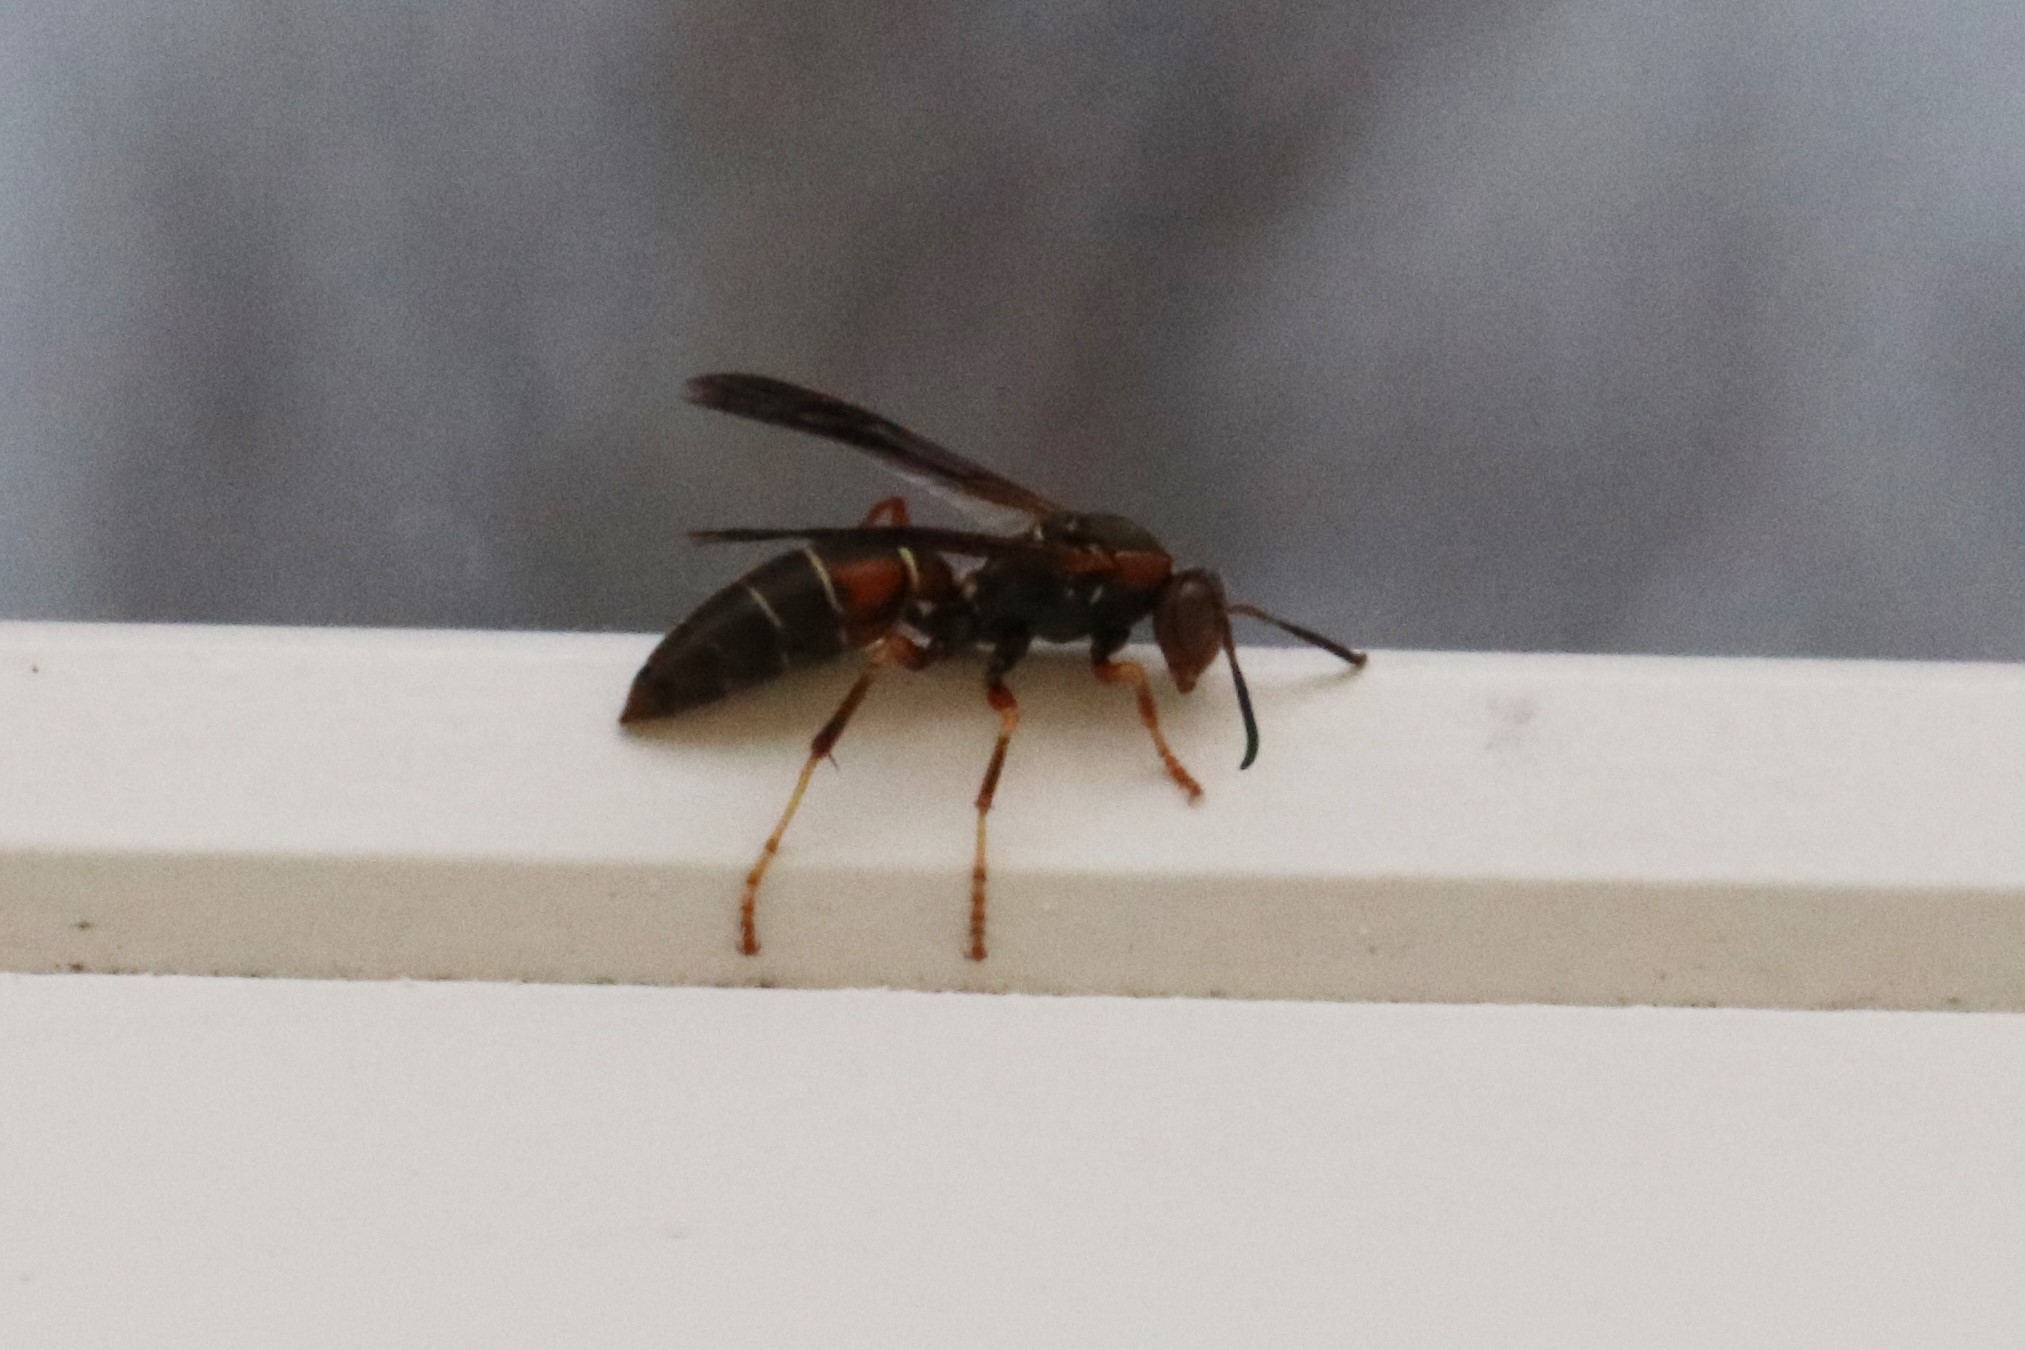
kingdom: Animalia
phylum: Arthropoda
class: Insecta
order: Hymenoptera
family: Eumenidae
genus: Polistes
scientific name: Polistes fuscatus
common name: Dark paper wasp
